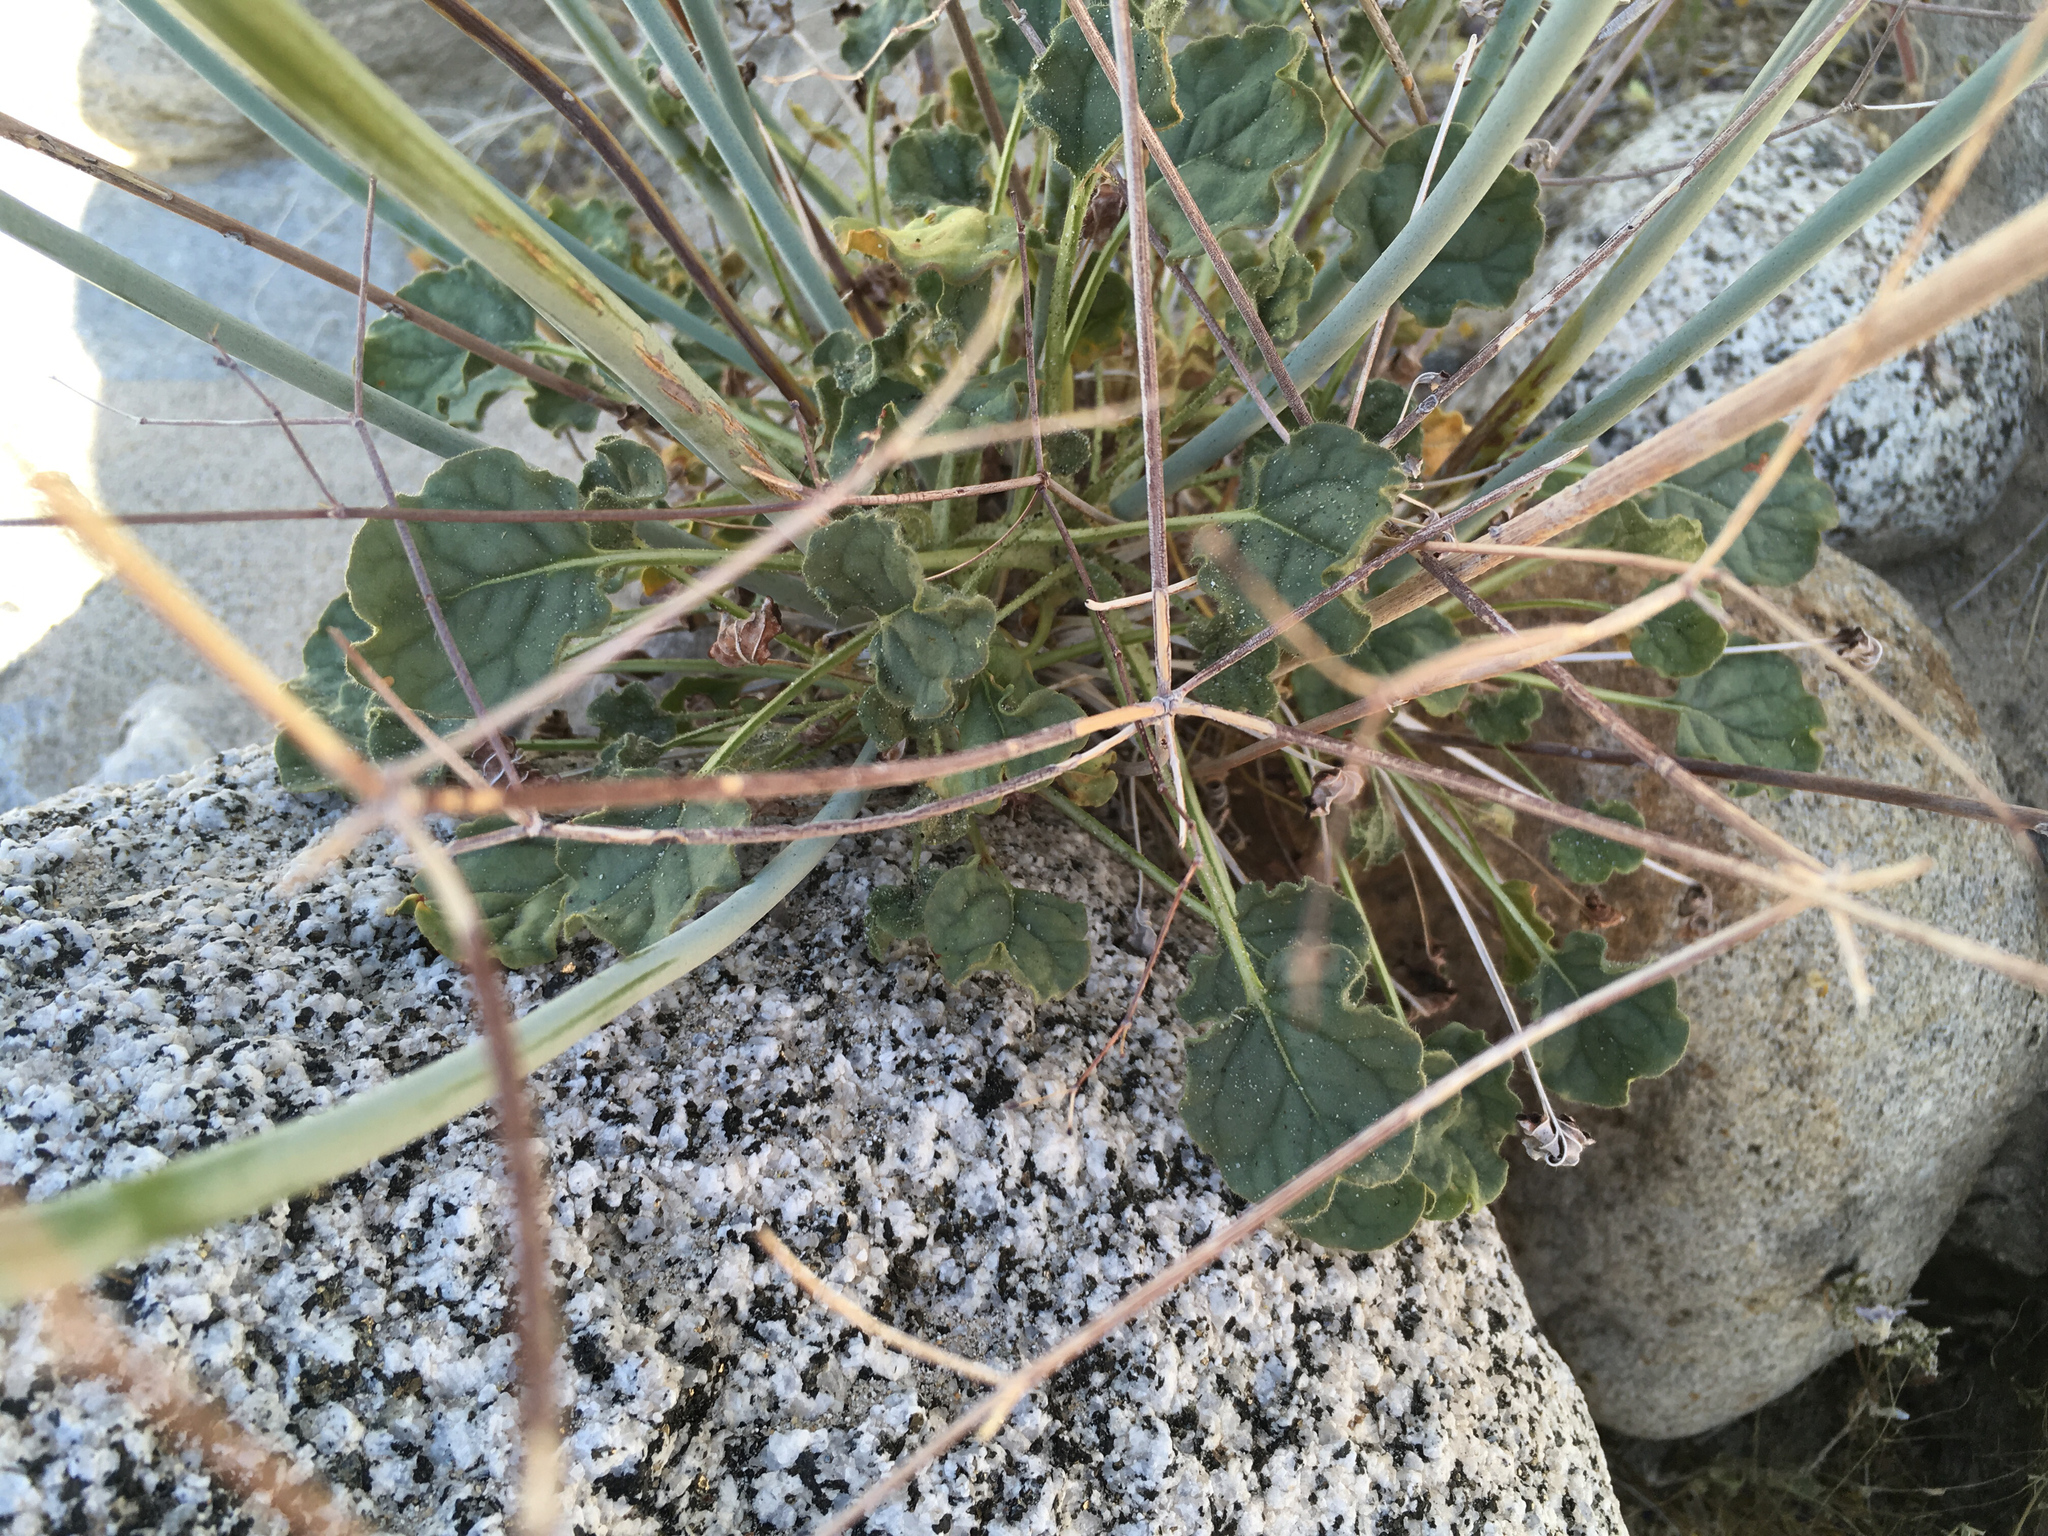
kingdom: Plantae
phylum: Tracheophyta
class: Magnoliopsida
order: Caryophyllales
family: Polygonaceae
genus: Eriogonum
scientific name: Eriogonum inflatum
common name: Desert trumpet
